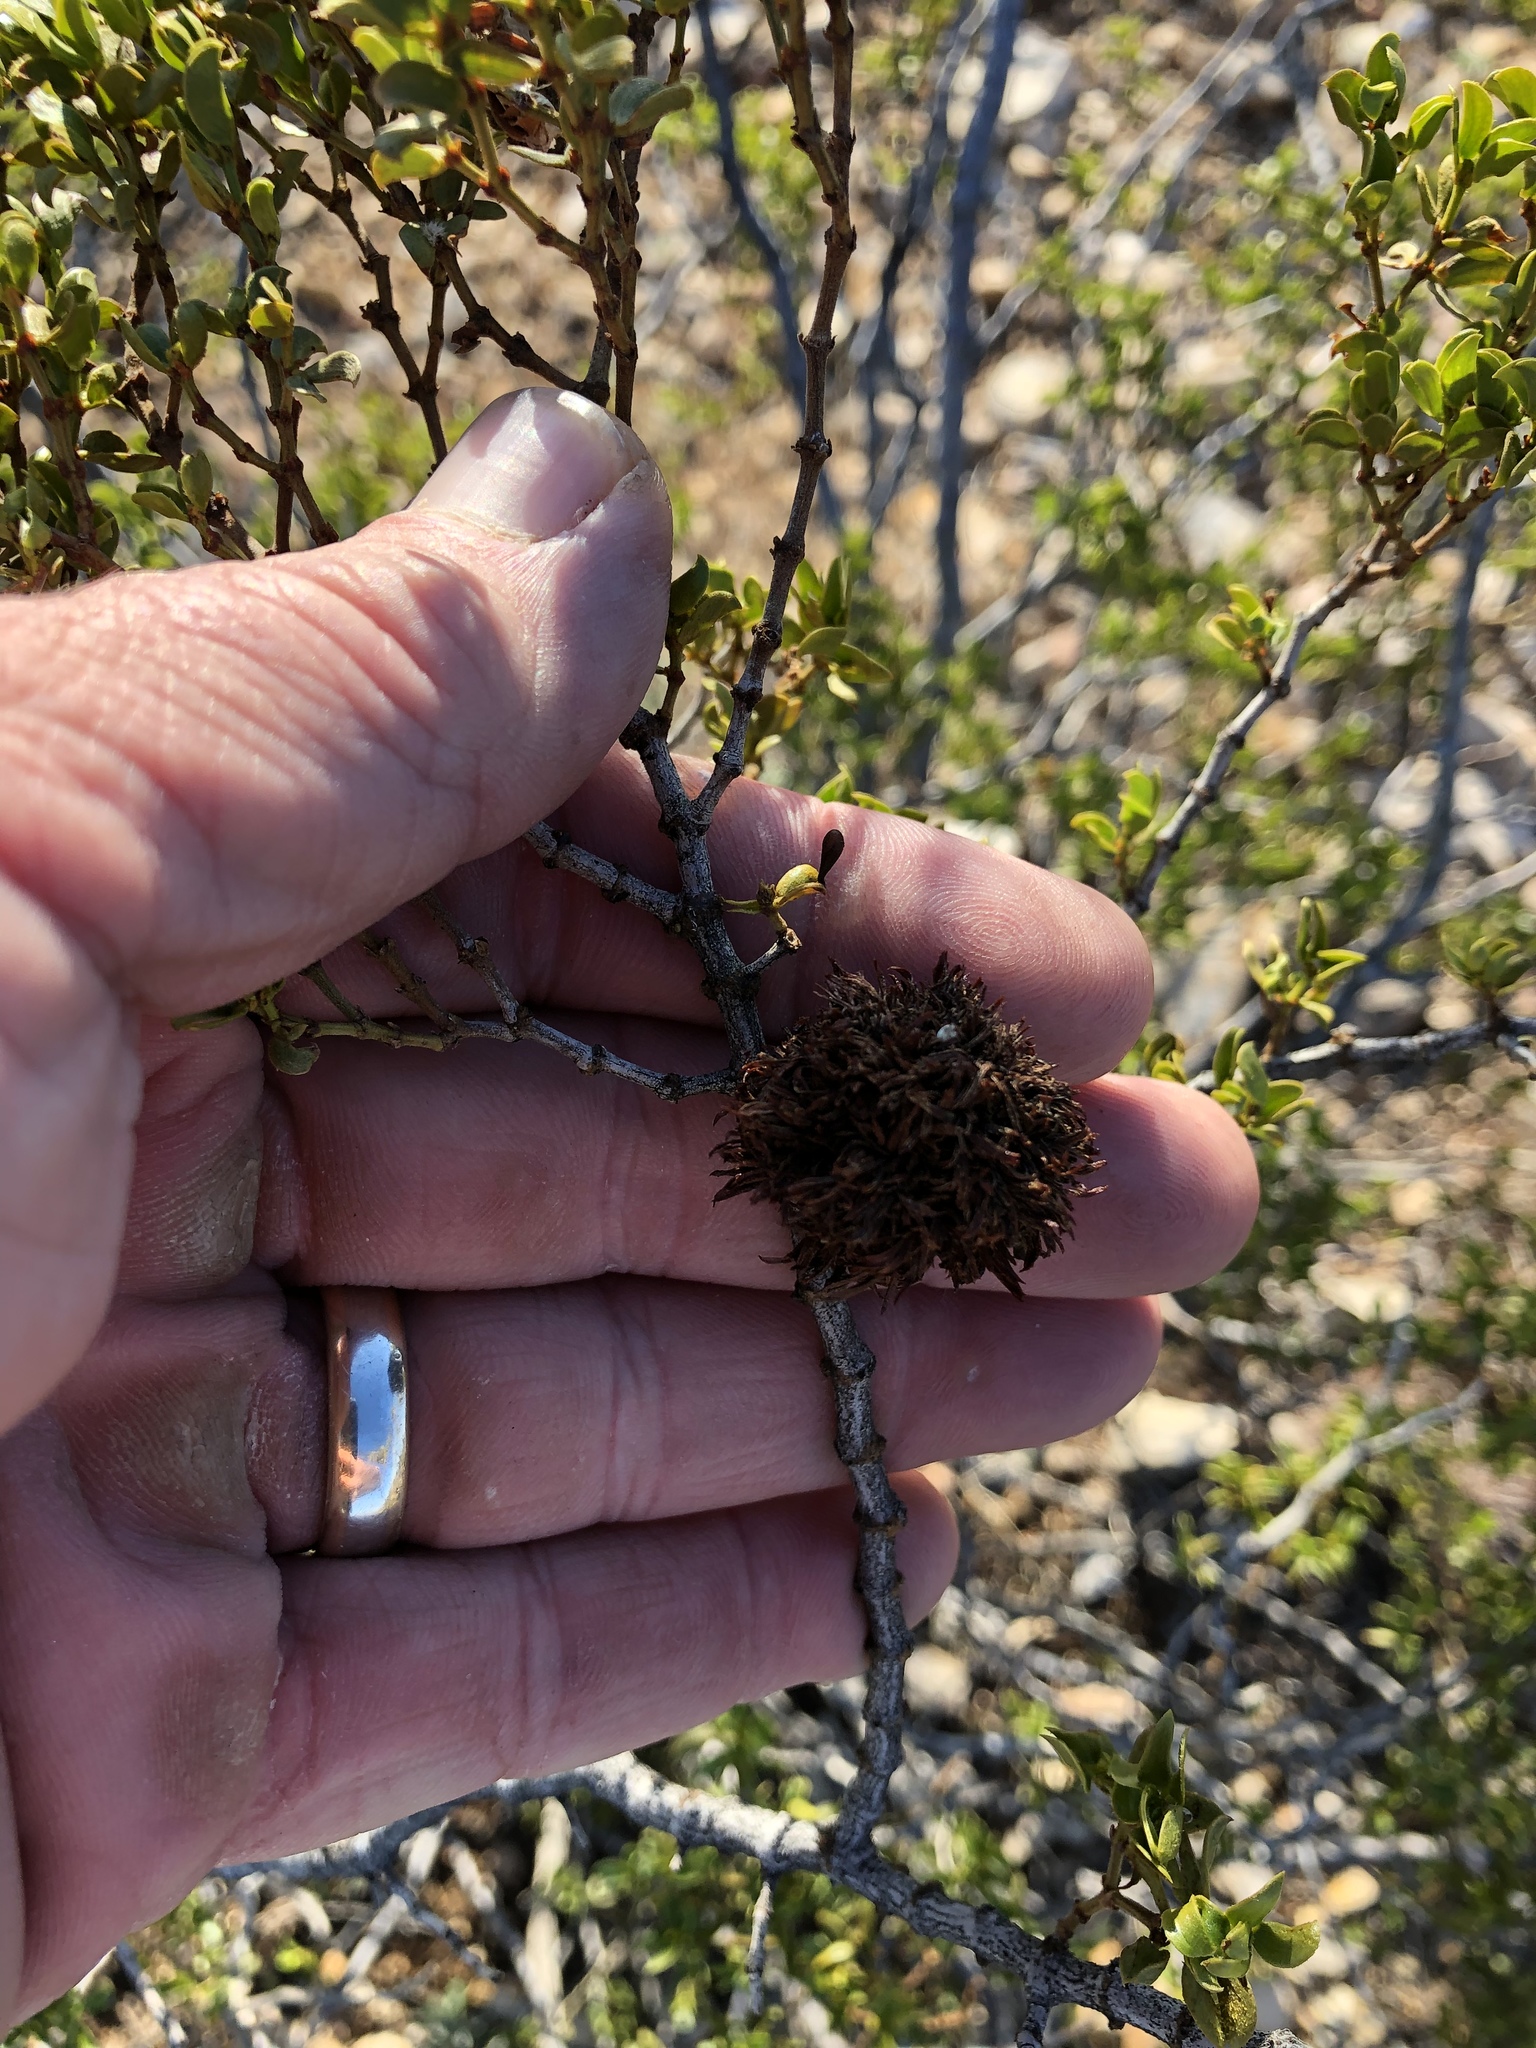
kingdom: Animalia
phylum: Arthropoda
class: Insecta
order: Diptera
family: Cecidomyiidae
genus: Asphondylia
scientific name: Asphondylia auripila
